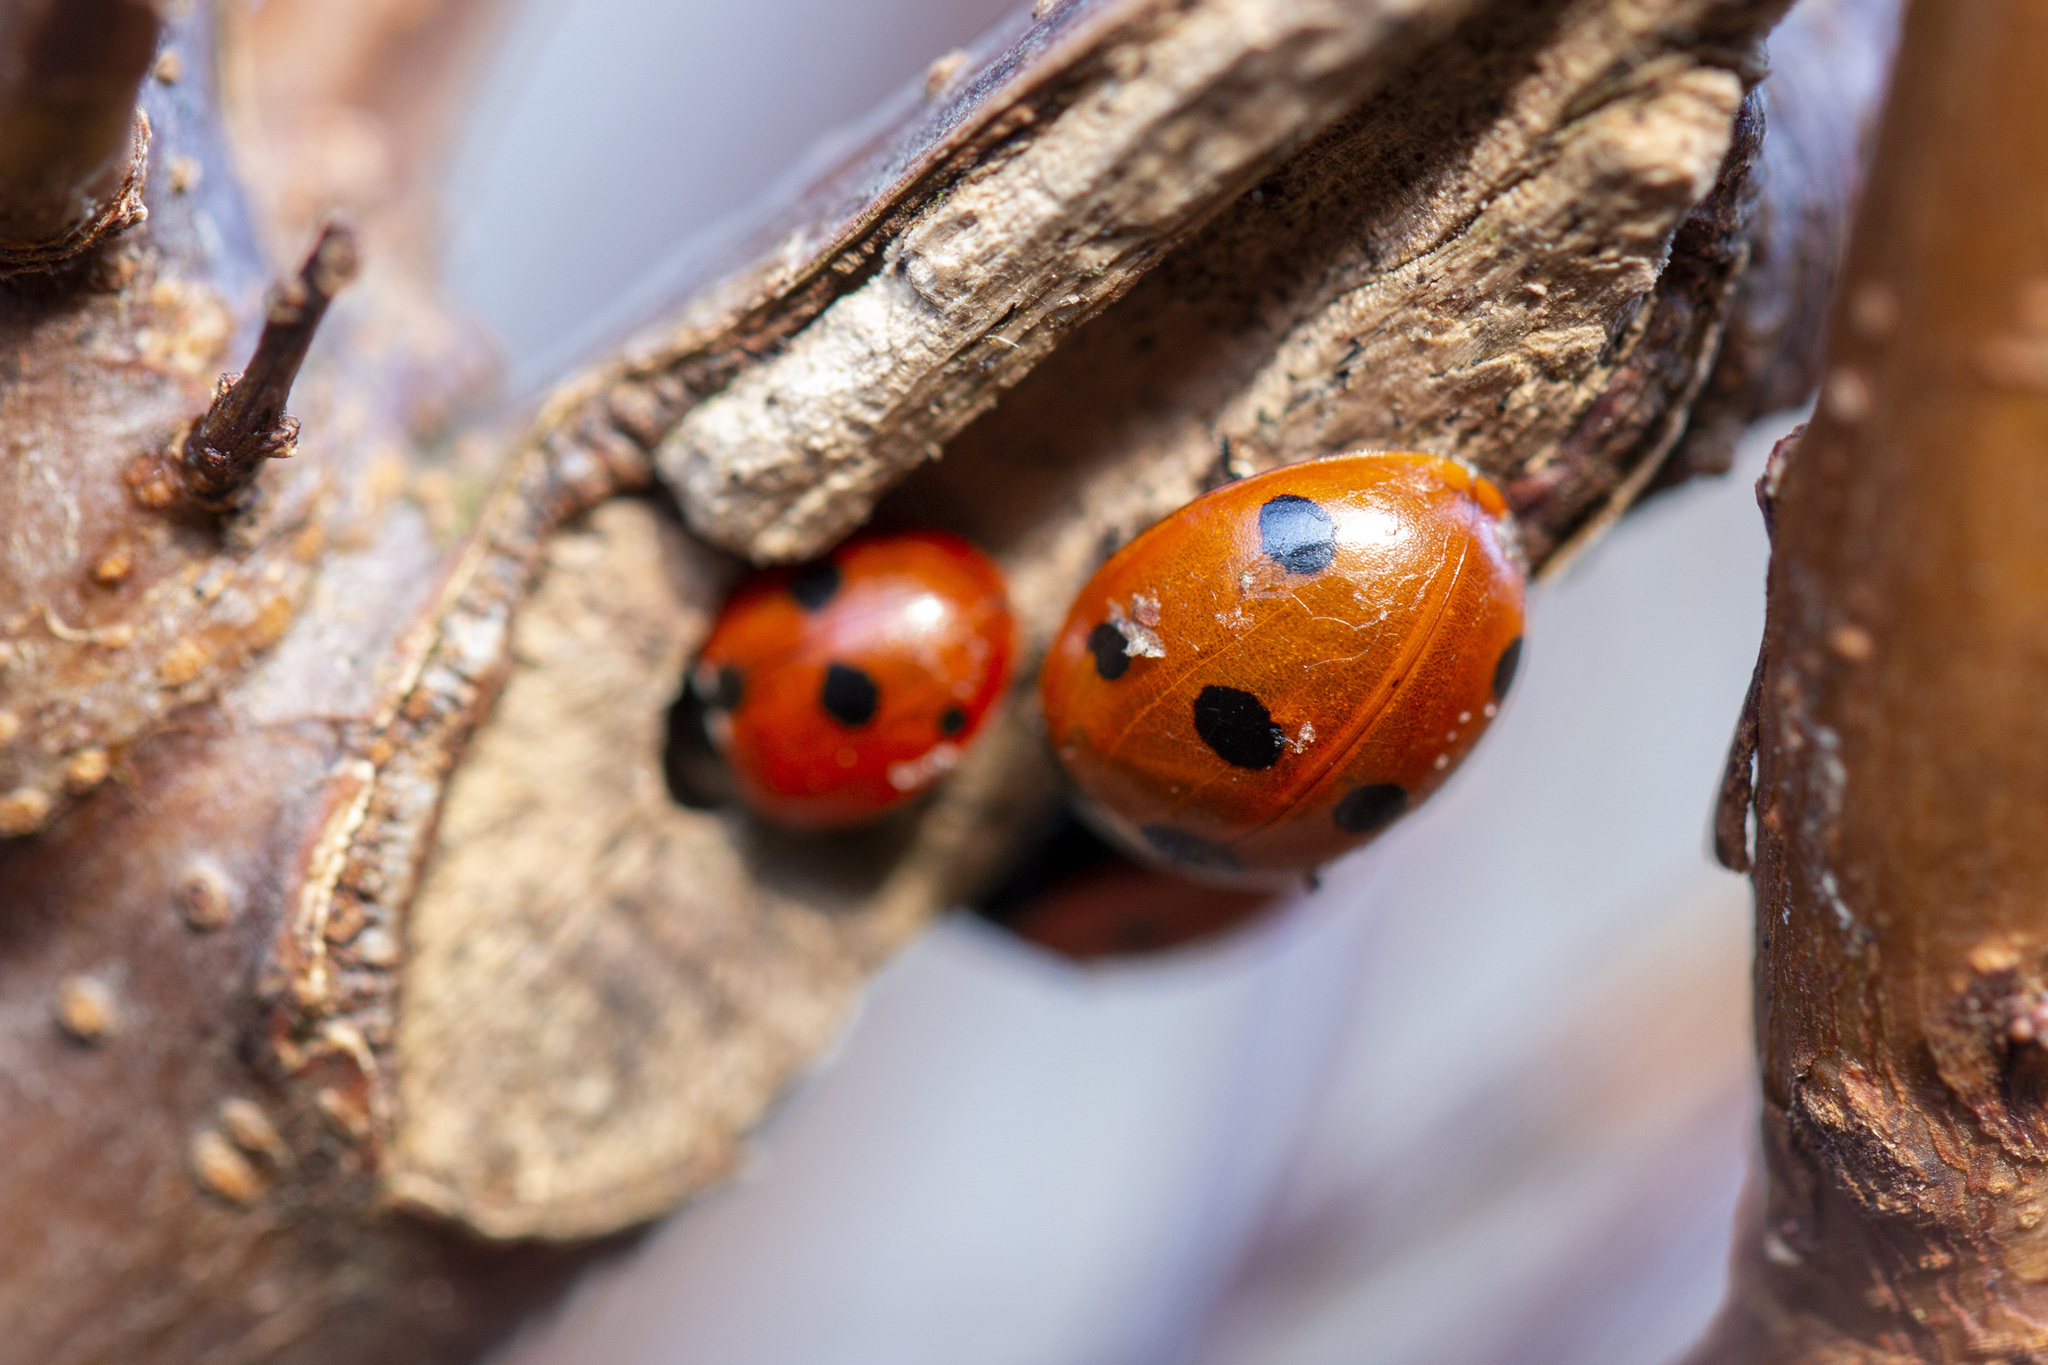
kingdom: Animalia
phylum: Arthropoda
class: Insecta
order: Coleoptera
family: Coccinellidae
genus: Coccinella
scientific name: Coccinella septempunctata
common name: Sevenspotted lady beetle
